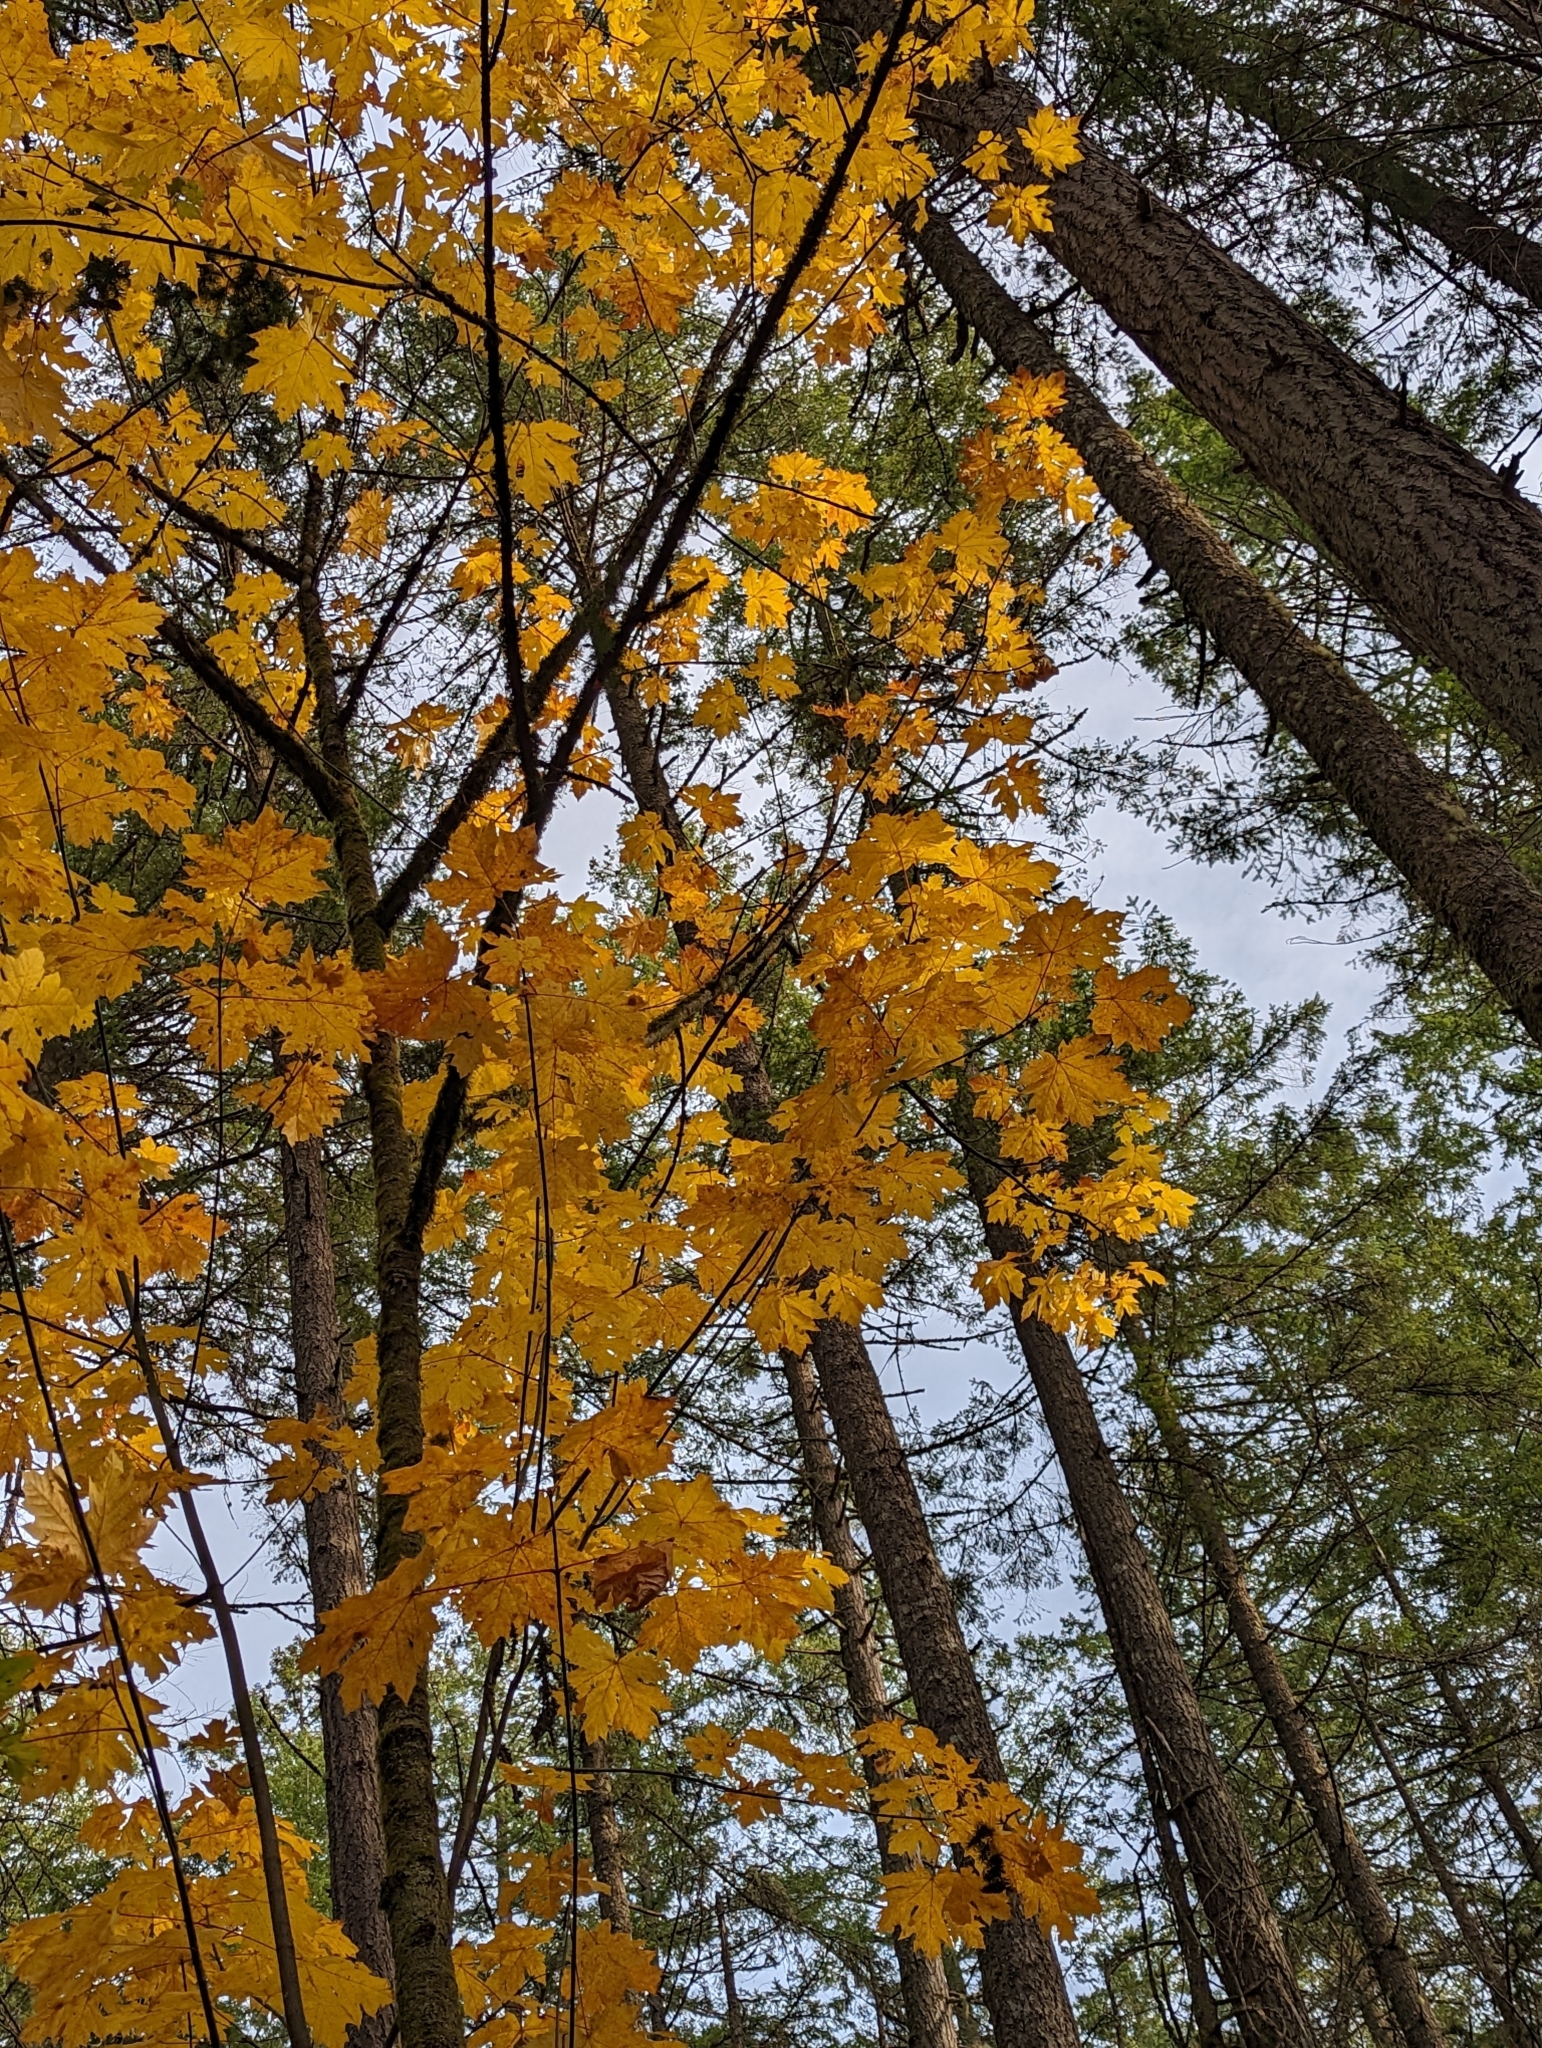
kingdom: Plantae
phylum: Tracheophyta
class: Magnoliopsida
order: Sapindales
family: Sapindaceae
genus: Acer
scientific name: Acer macrophyllum
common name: Oregon maple
